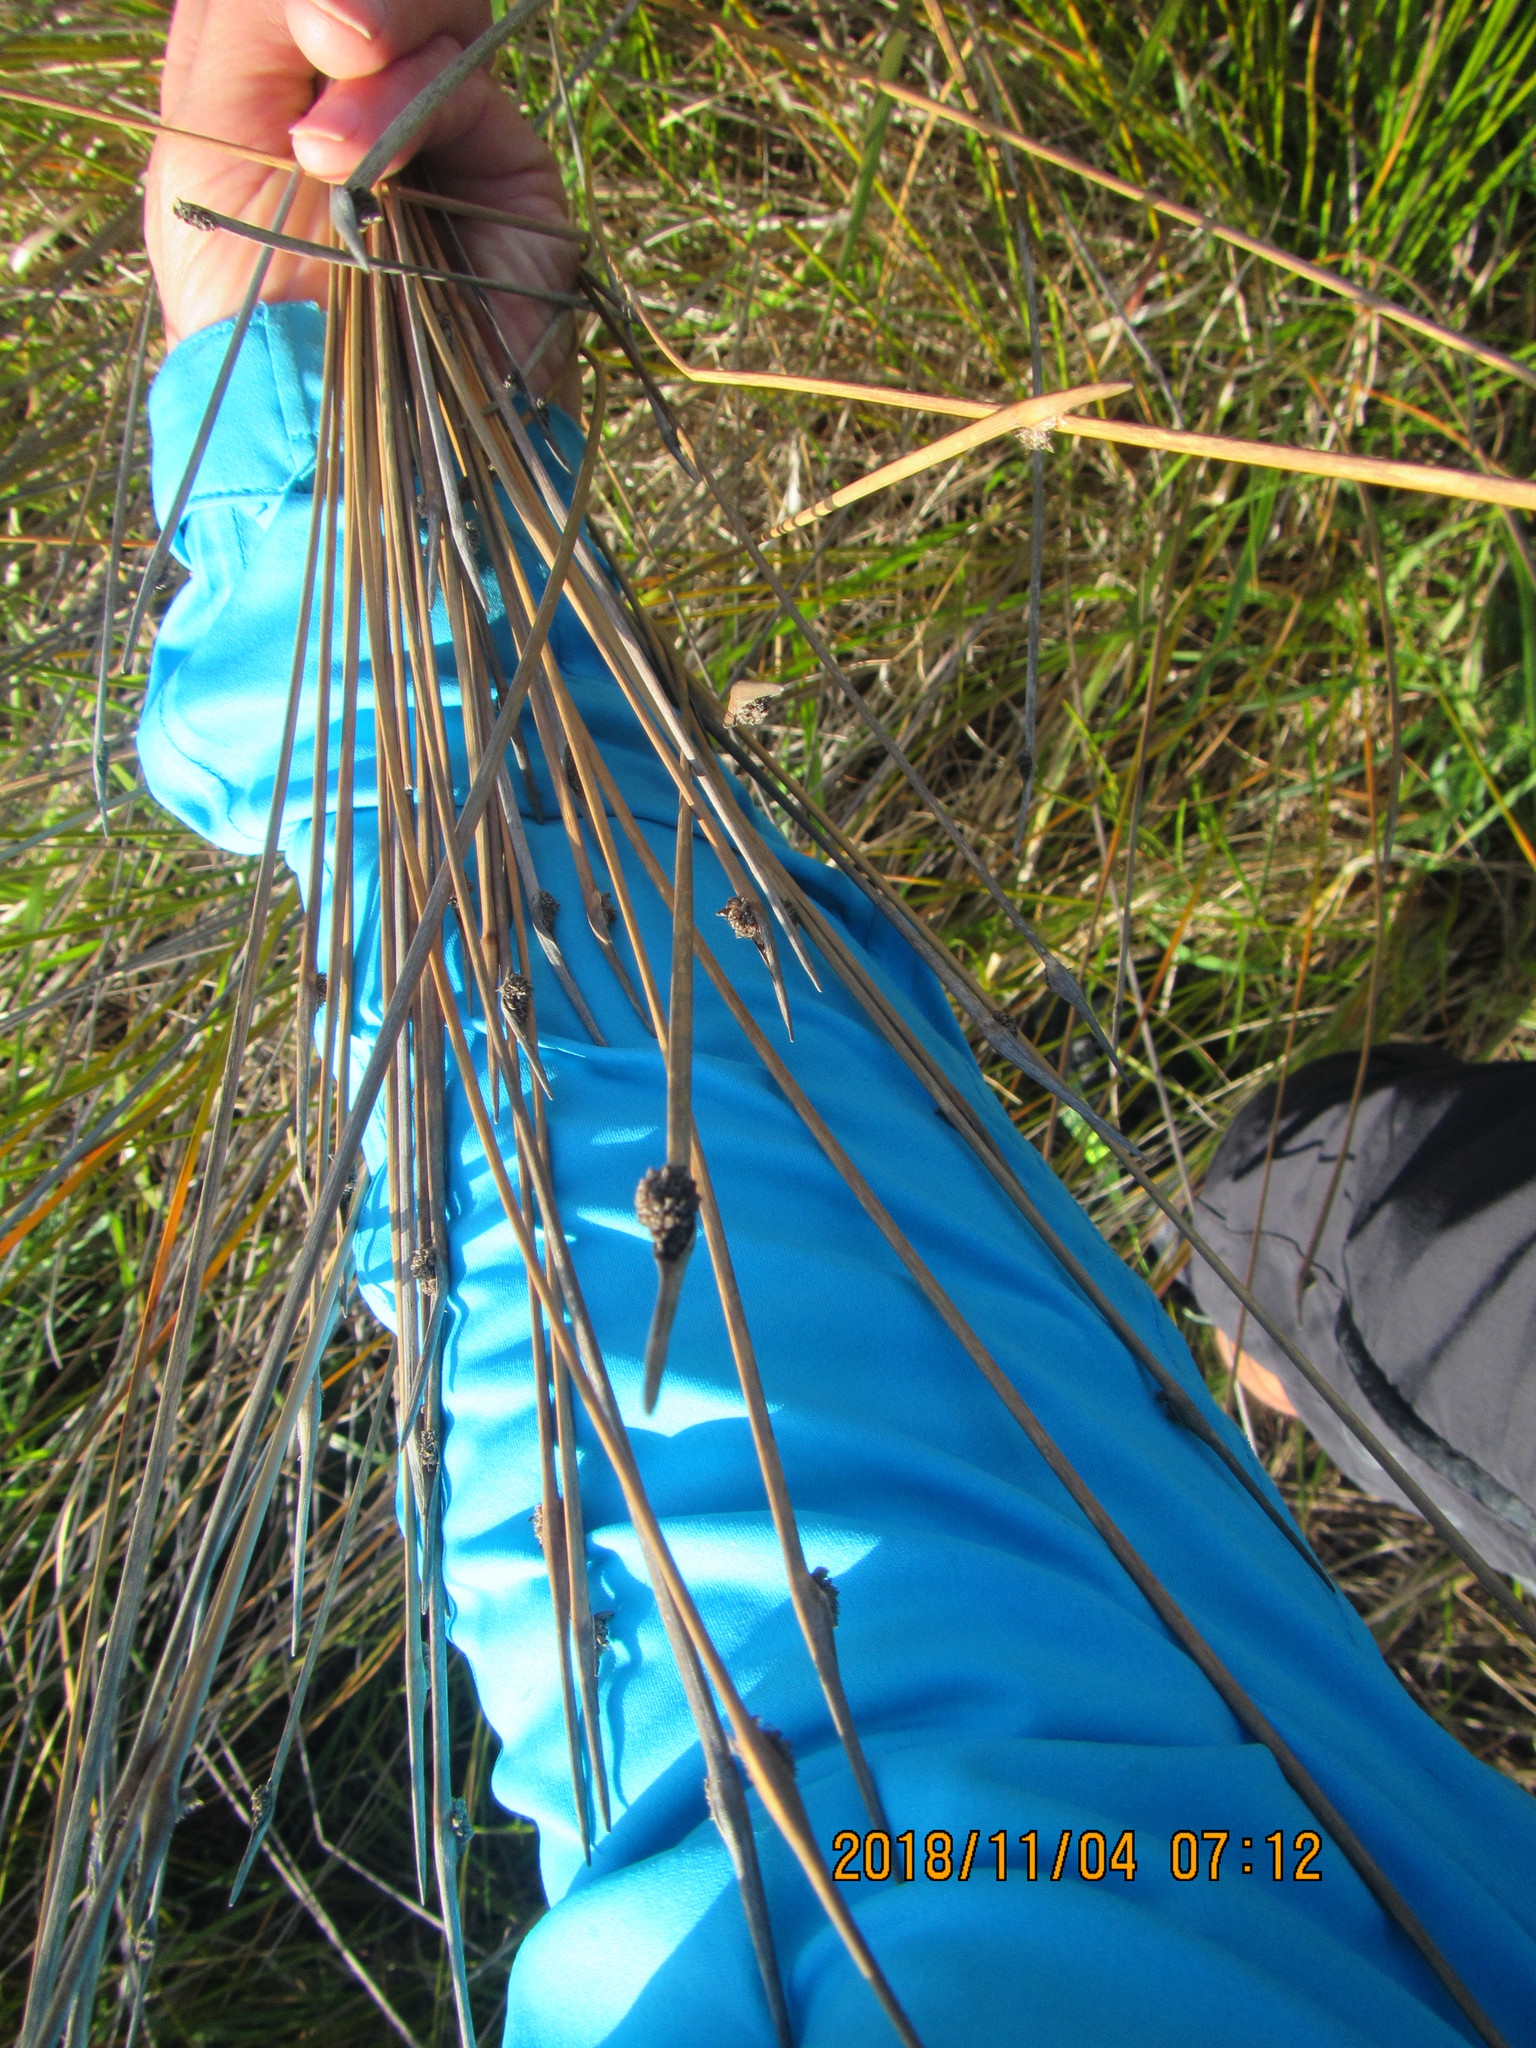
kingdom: Plantae
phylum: Tracheophyta
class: Liliopsida
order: Poales
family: Cyperaceae
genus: Ficinia
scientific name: Ficinia nodosa
